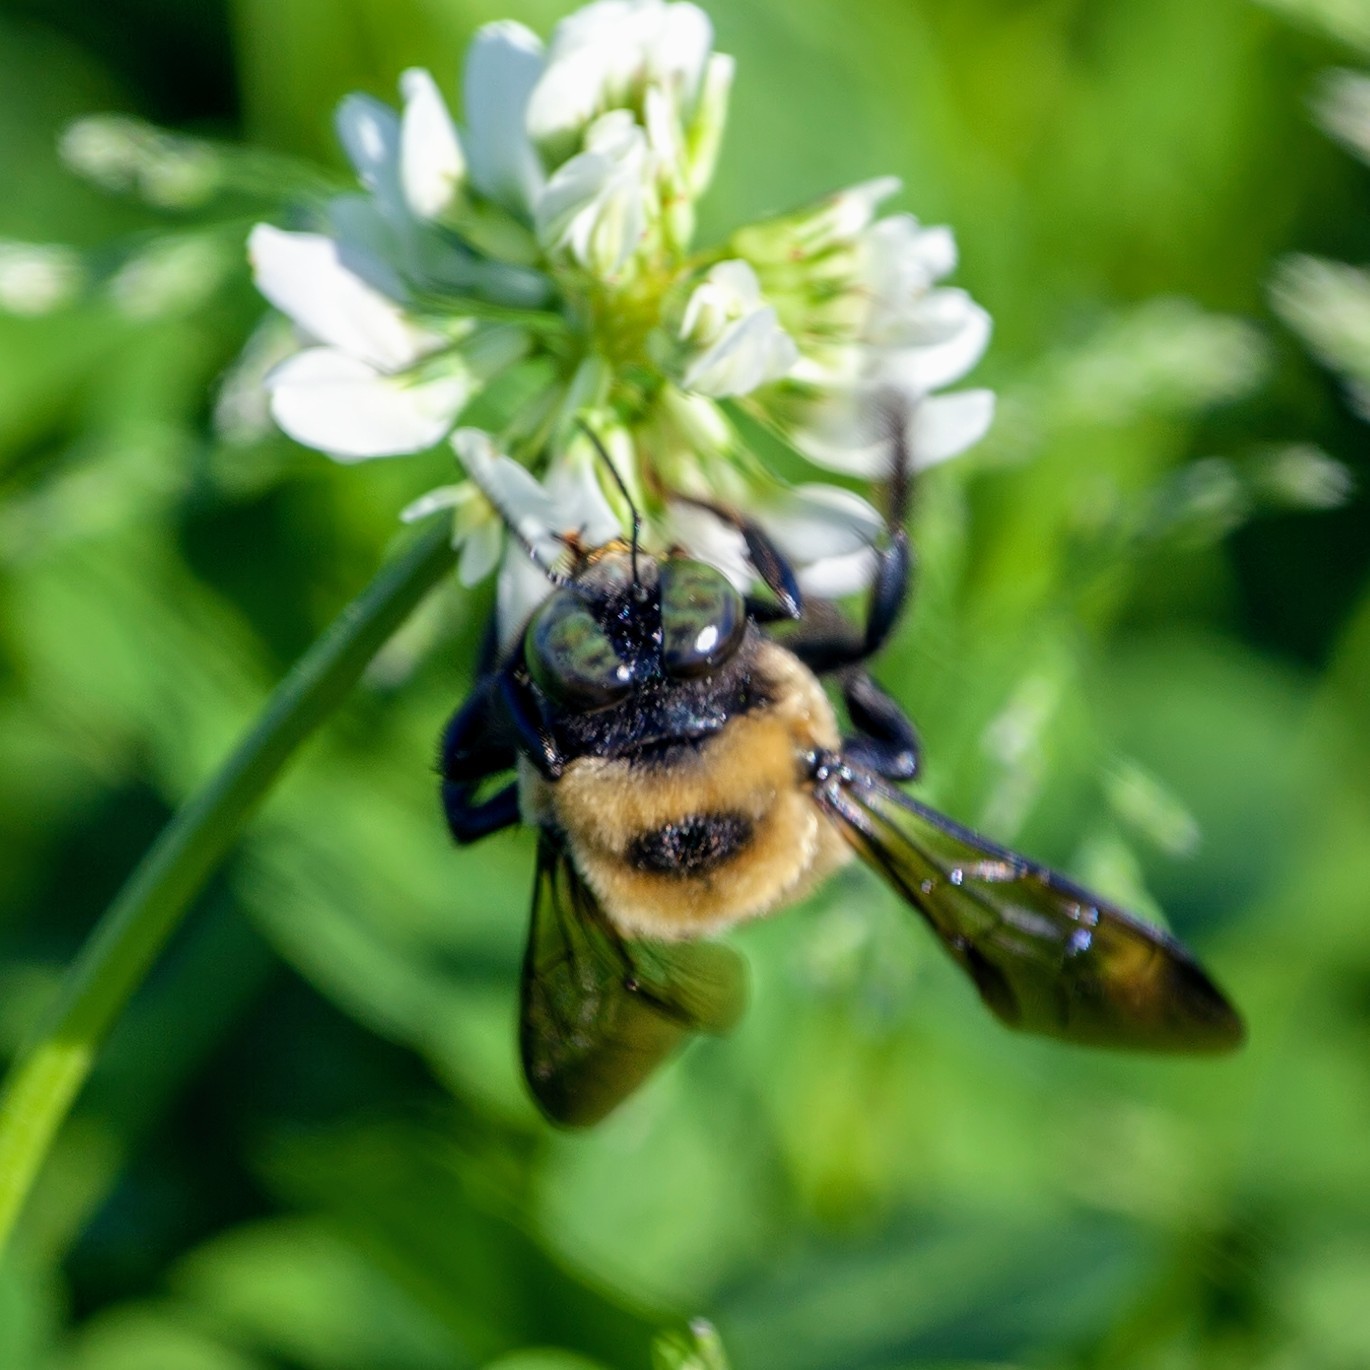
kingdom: Animalia
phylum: Arthropoda
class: Insecta
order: Hymenoptera
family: Apidae
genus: Xylocopa
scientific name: Xylocopa virginica
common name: Carpenter bee
